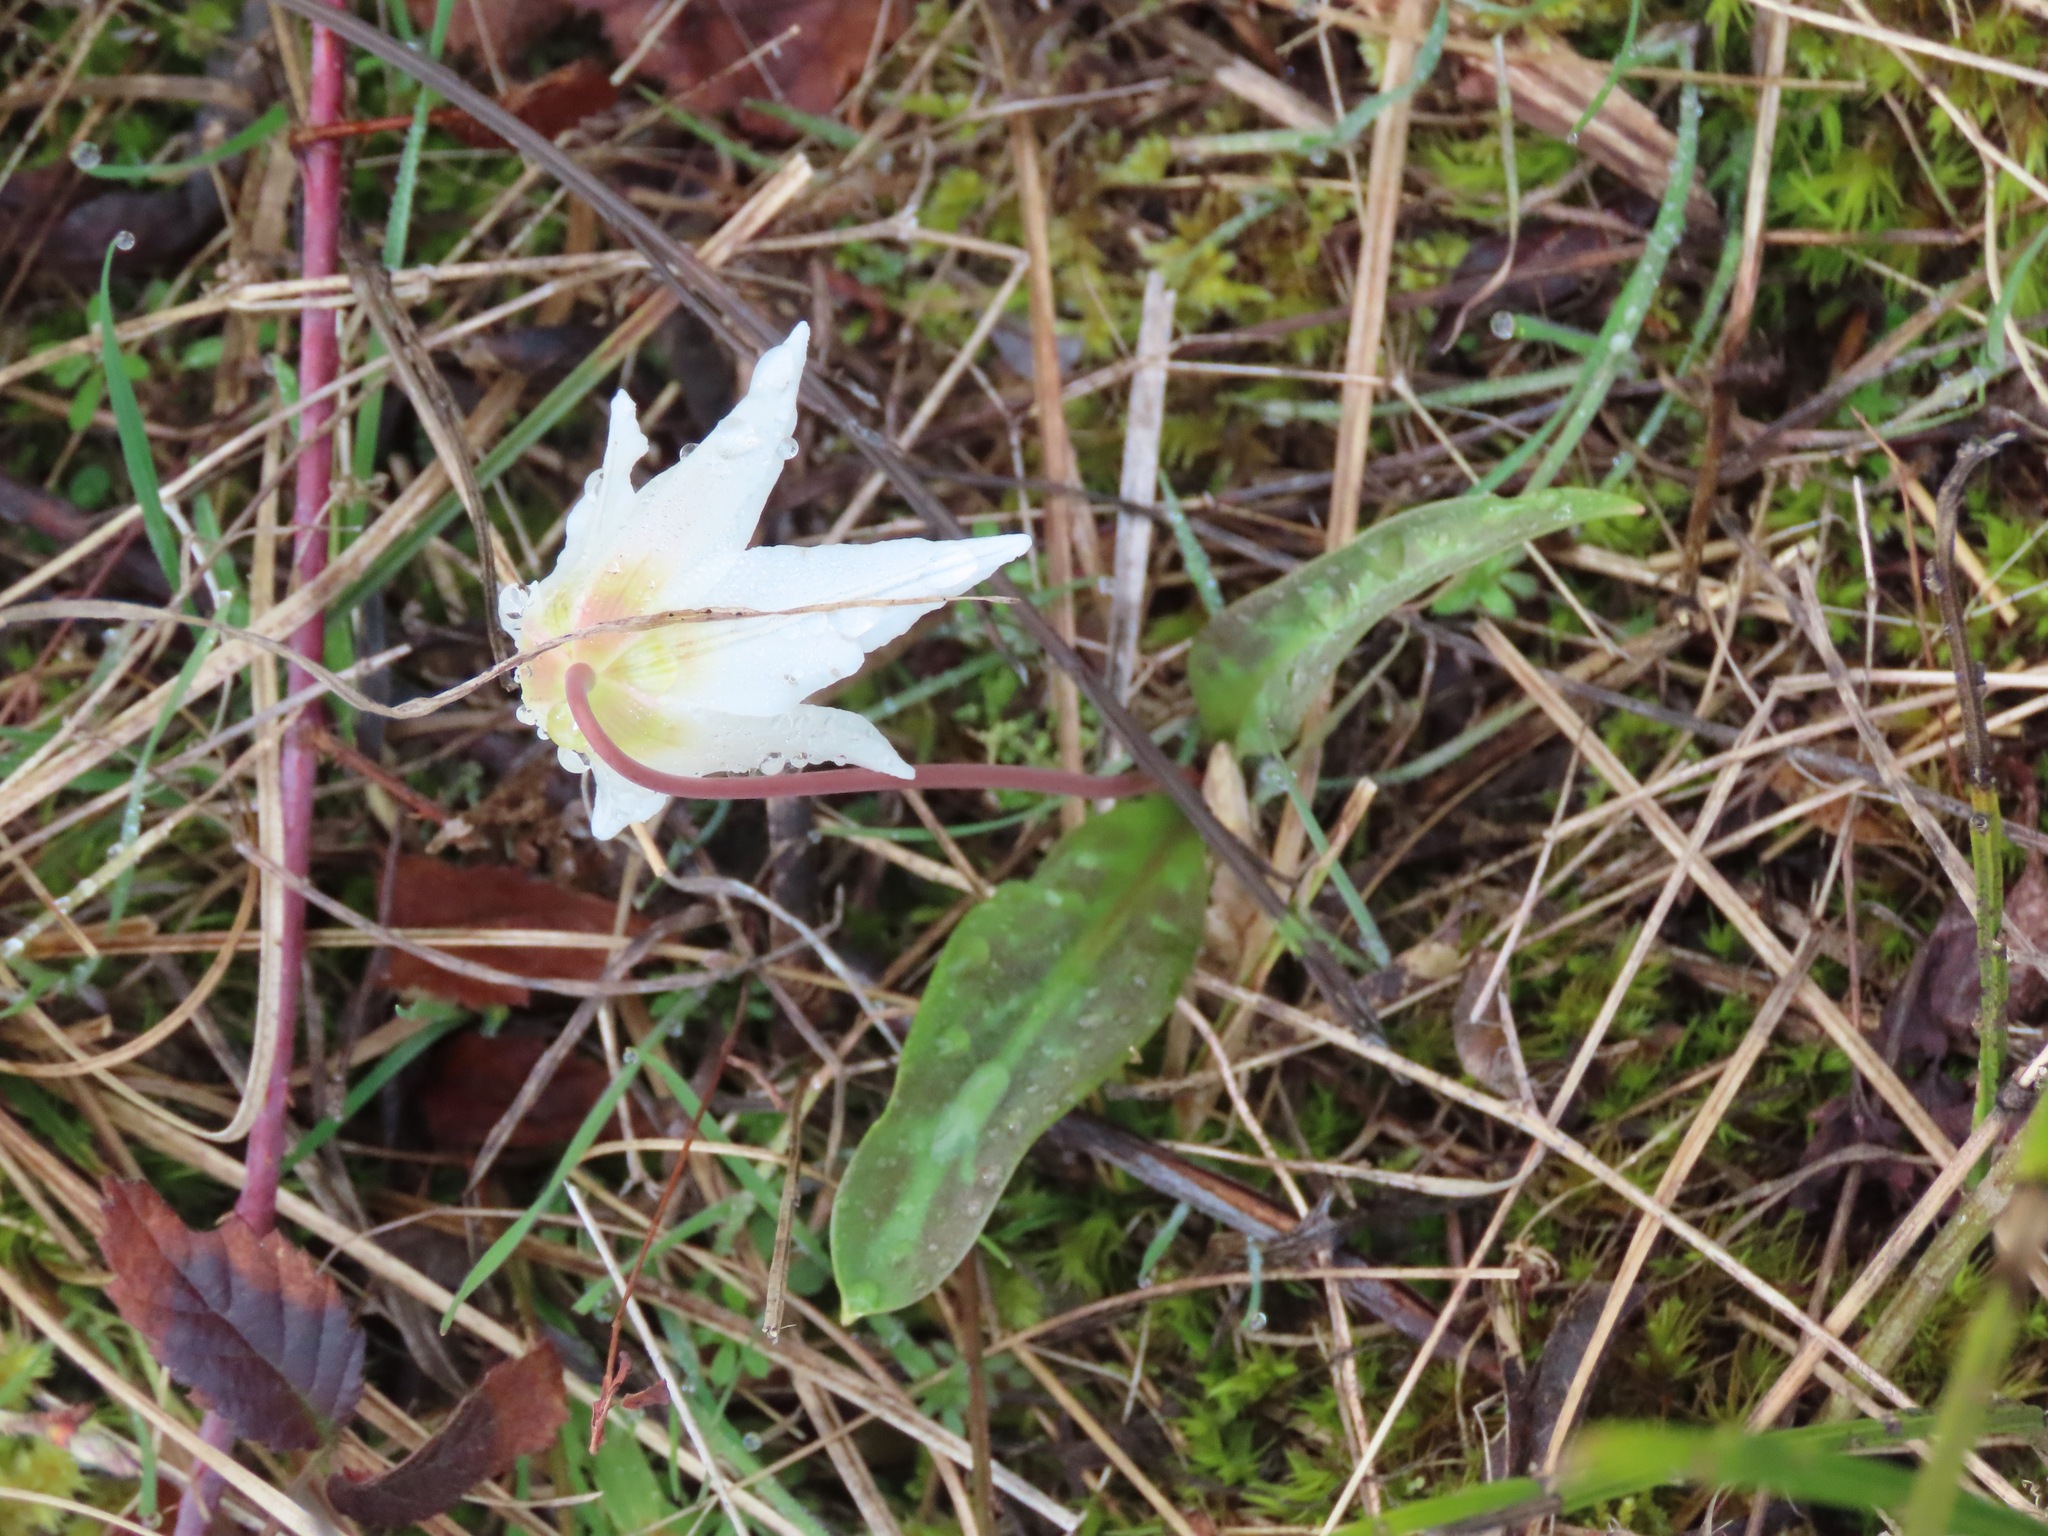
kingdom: Plantae
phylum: Tracheophyta
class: Liliopsida
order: Liliales
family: Liliaceae
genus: Erythronium
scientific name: Erythronium oregonum
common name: Giant adder's-tongue
